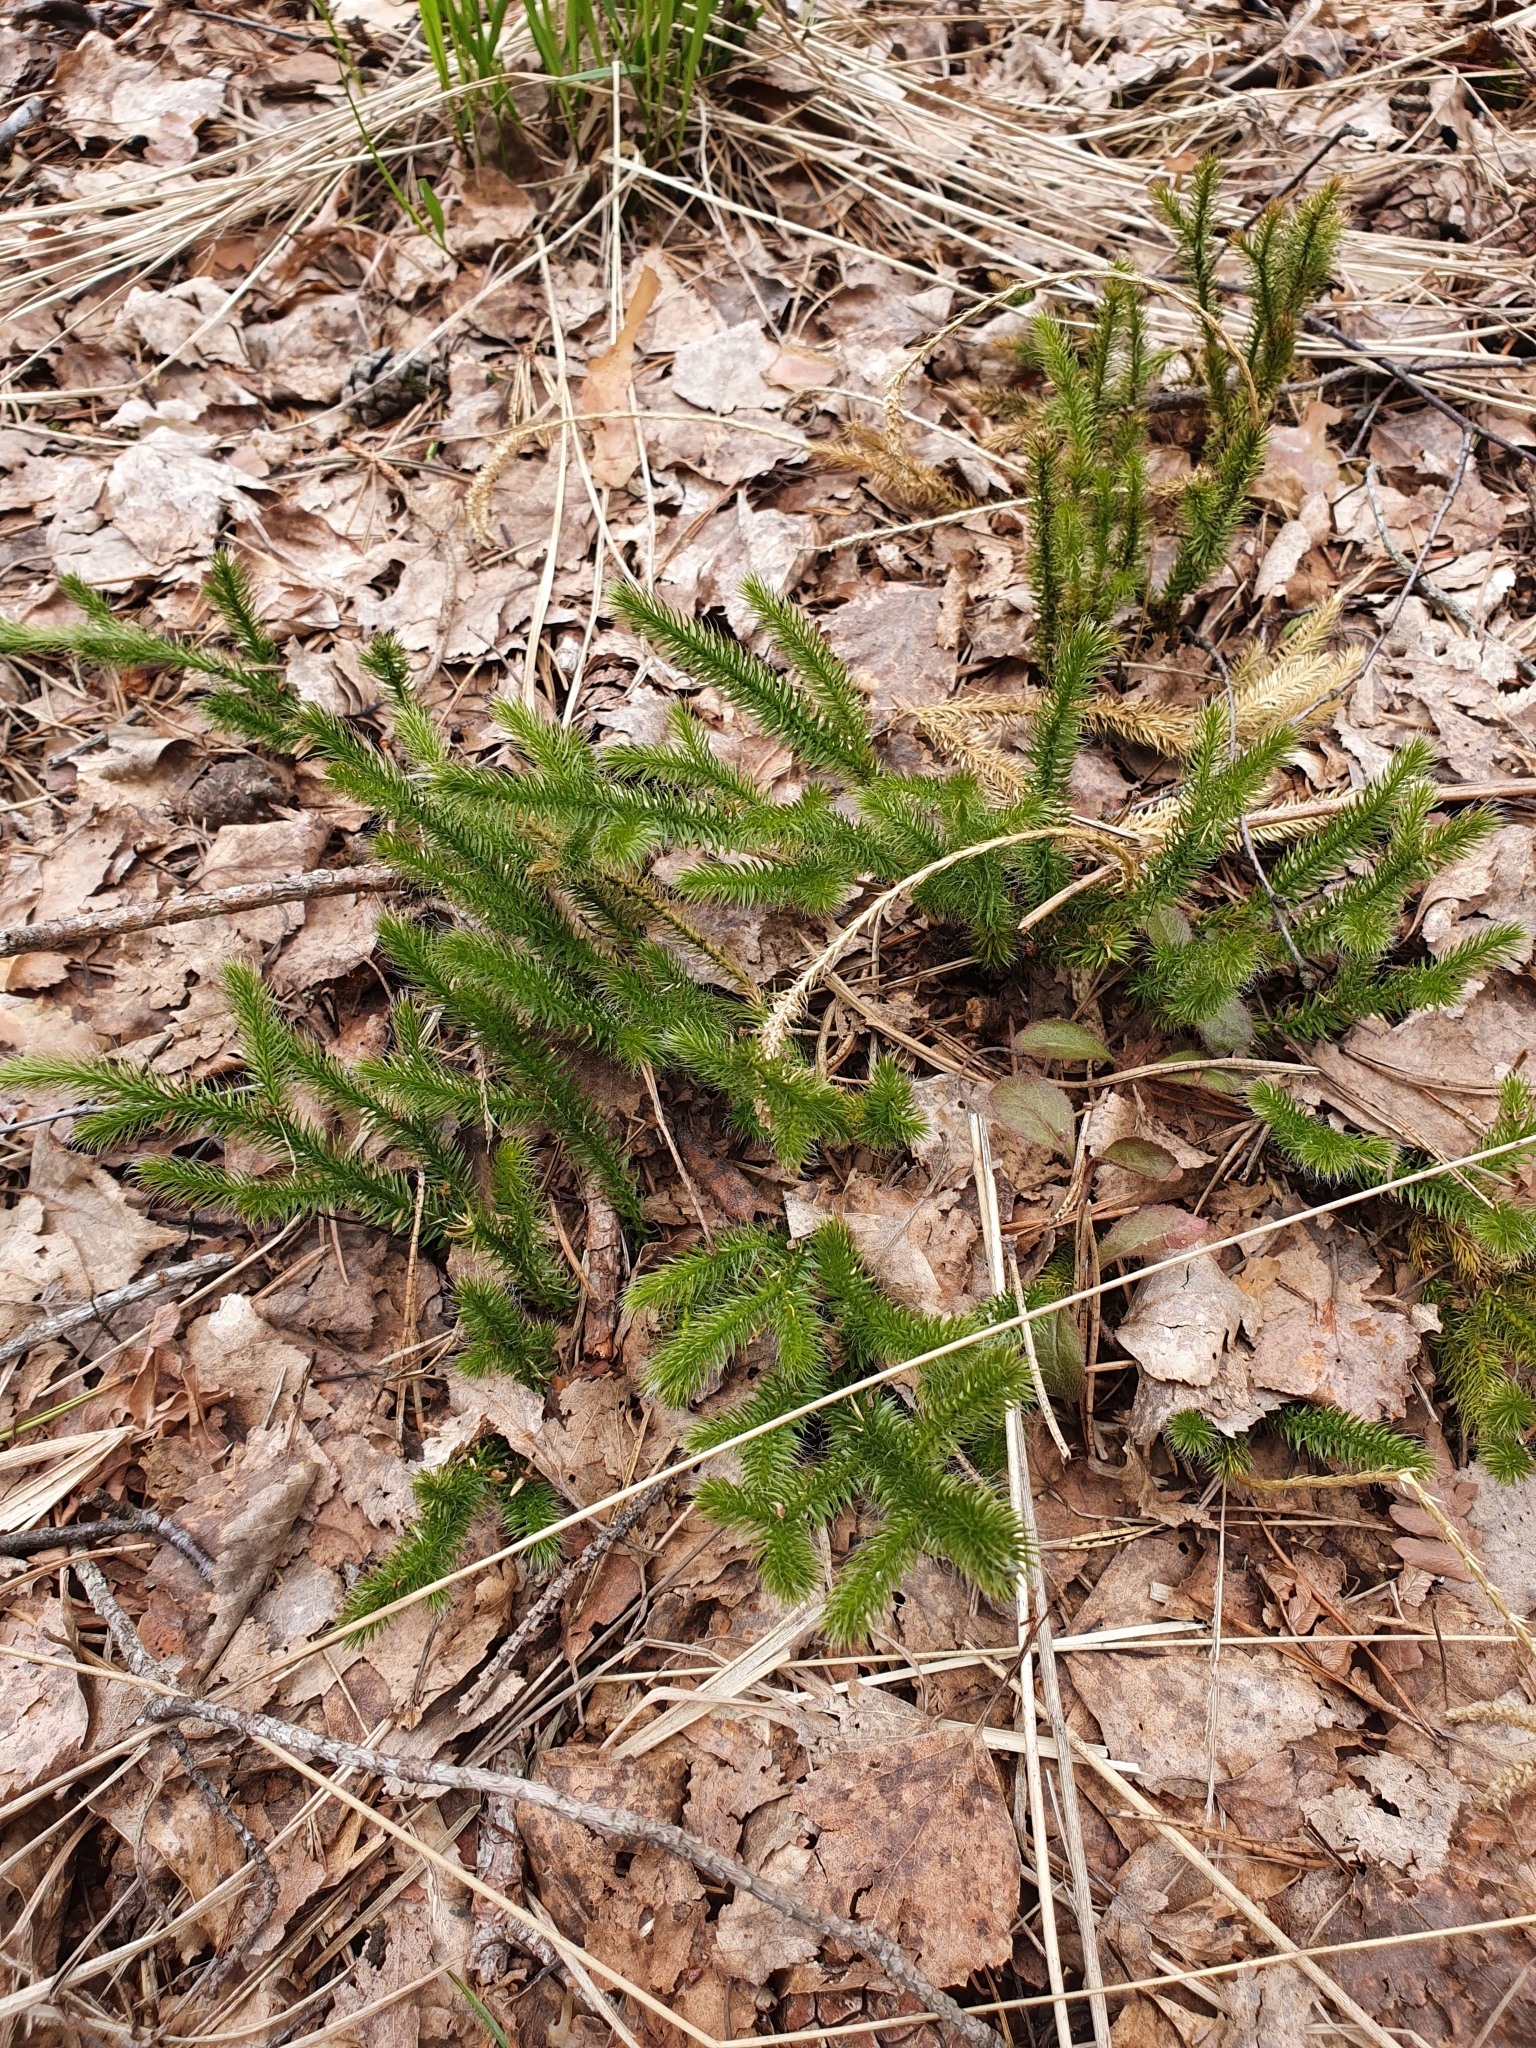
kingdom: Plantae
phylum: Tracheophyta
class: Lycopodiopsida
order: Lycopodiales
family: Lycopodiaceae
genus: Lycopodium
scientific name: Lycopodium clavatum
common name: Stag's-horn clubmoss
